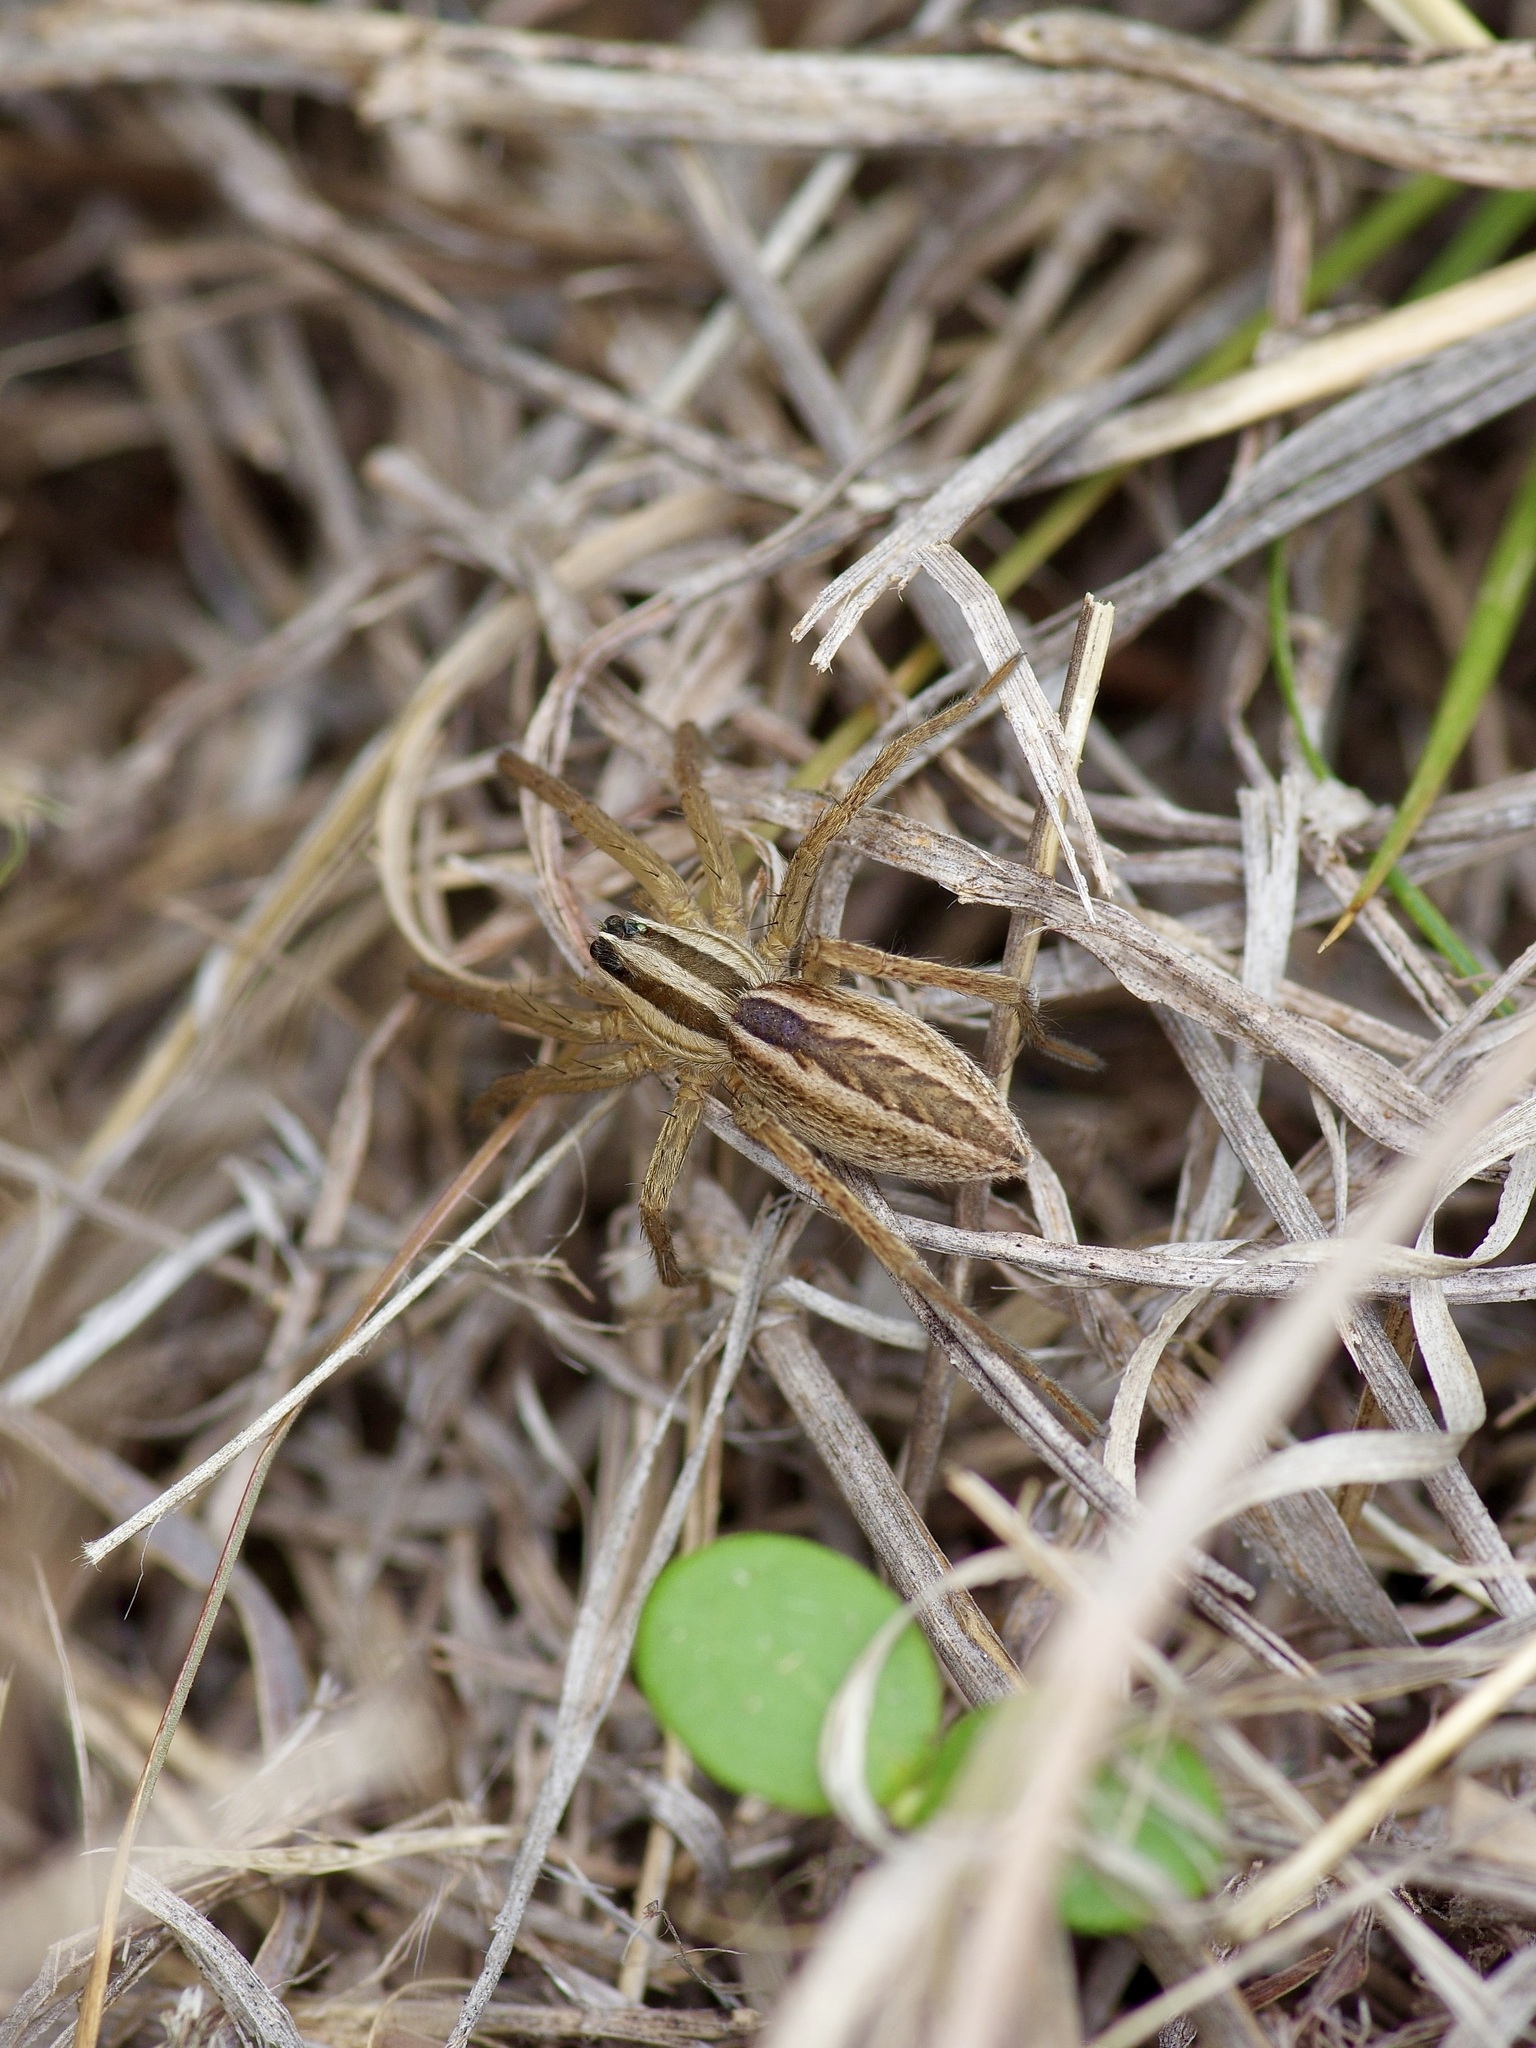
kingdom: Animalia
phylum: Arthropoda
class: Arachnida
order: Araneae
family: Lycosidae
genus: Rabidosa
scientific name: Rabidosa rabida
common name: Rabid wolf spider
